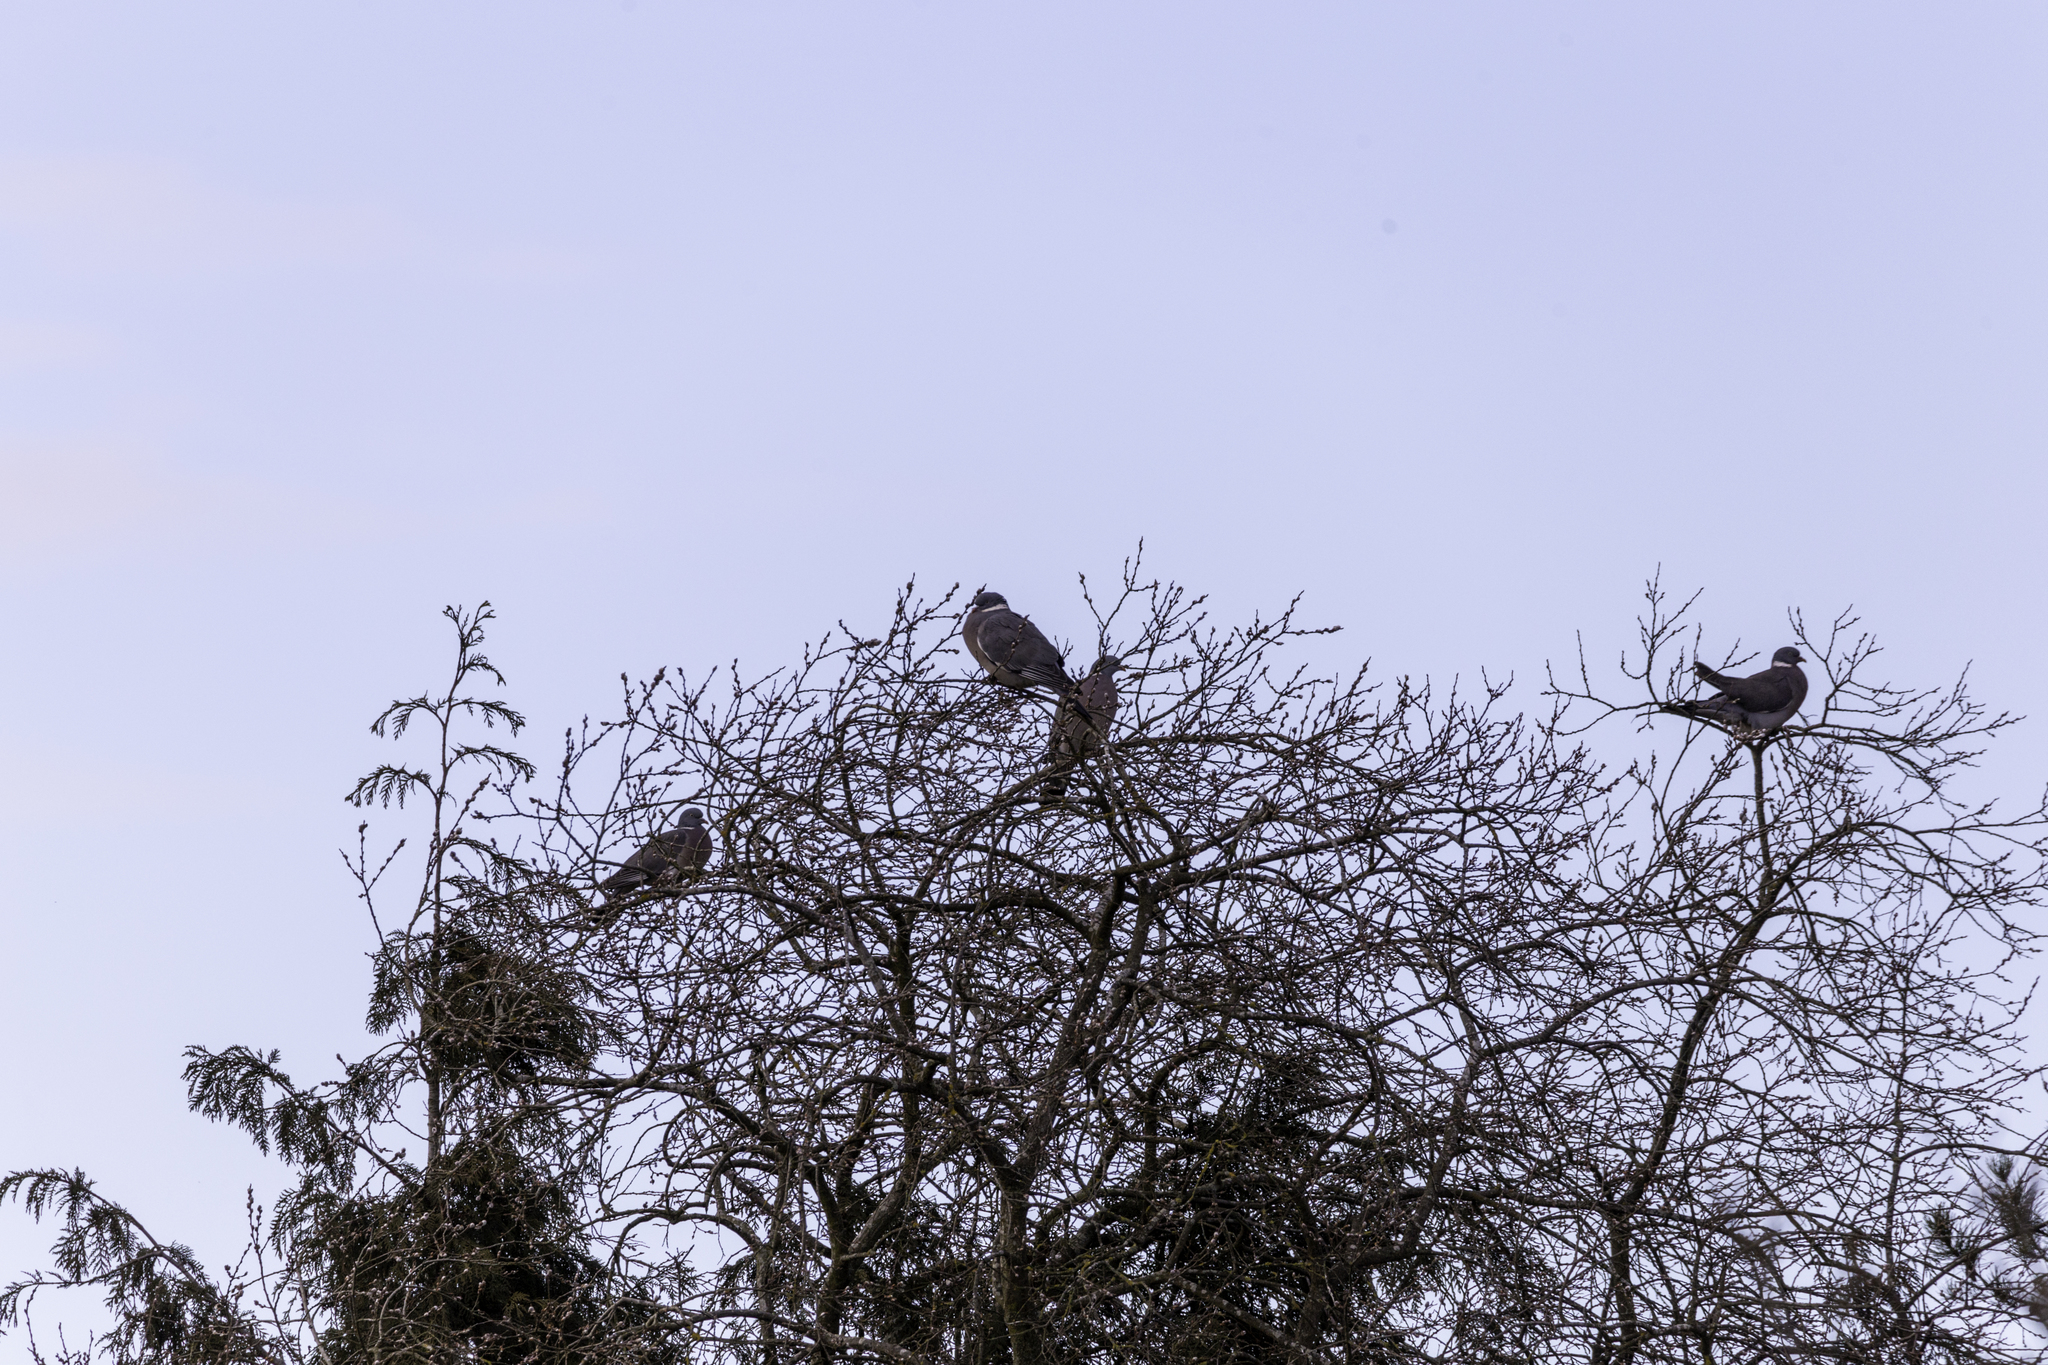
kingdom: Animalia
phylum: Chordata
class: Aves
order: Columbiformes
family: Columbidae
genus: Columba
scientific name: Columba palumbus
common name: Common wood pigeon
